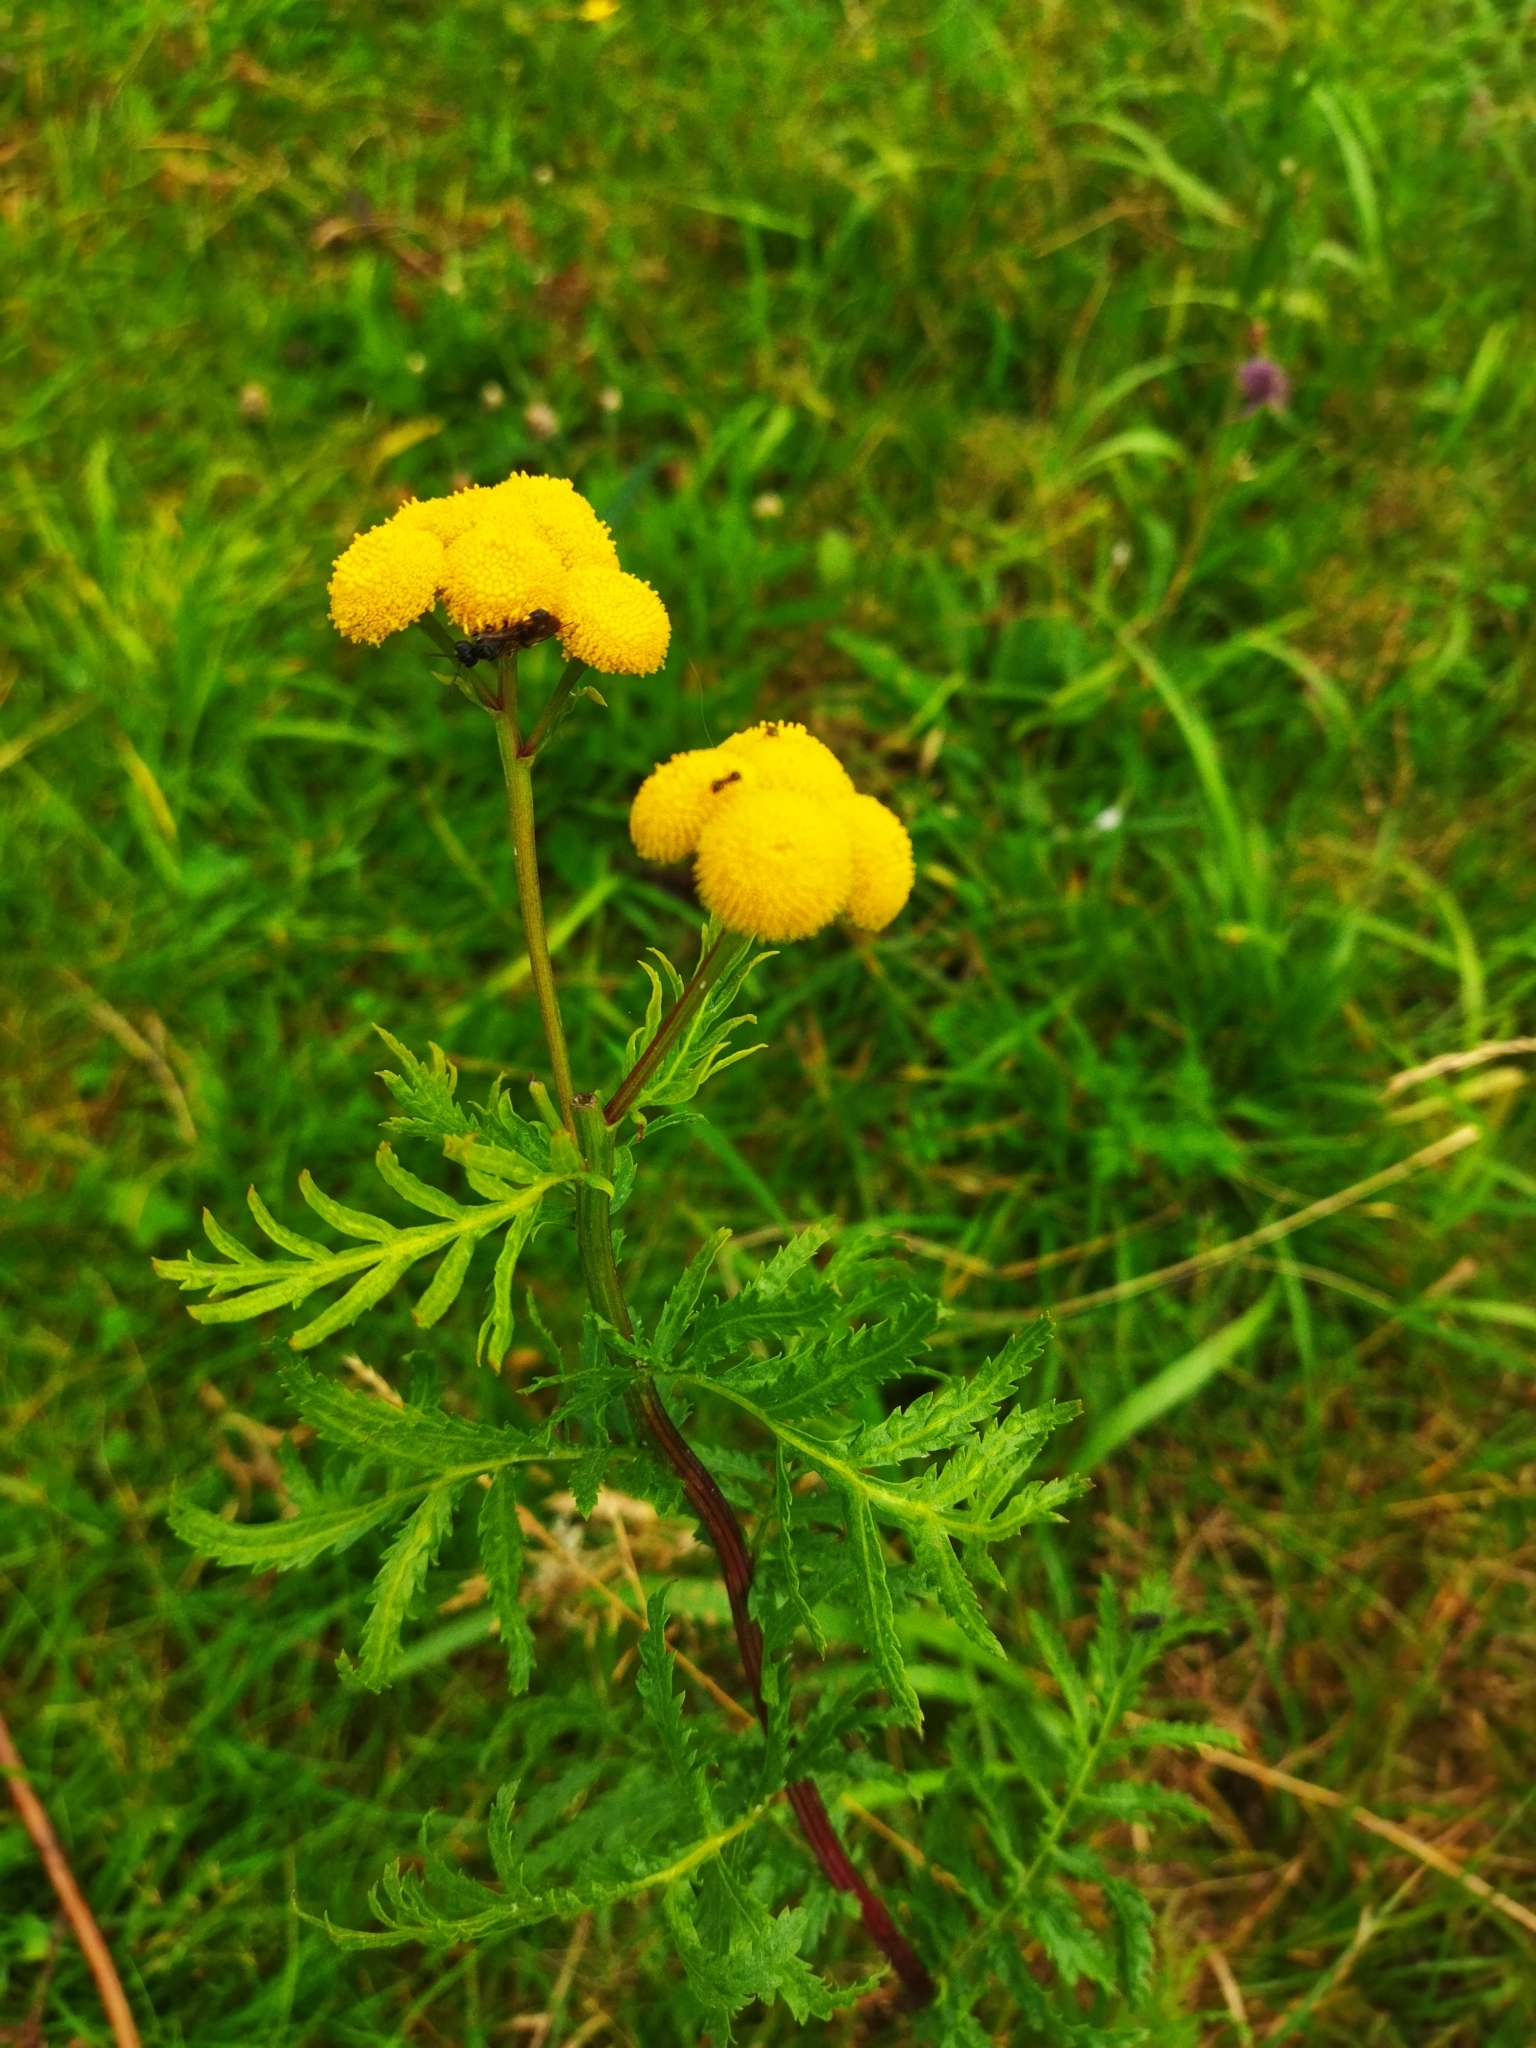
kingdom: Plantae
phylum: Tracheophyta
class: Magnoliopsida
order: Asterales
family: Asteraceae
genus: Tanacetum
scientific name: Tanacetum vulgare
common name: Common tansy
